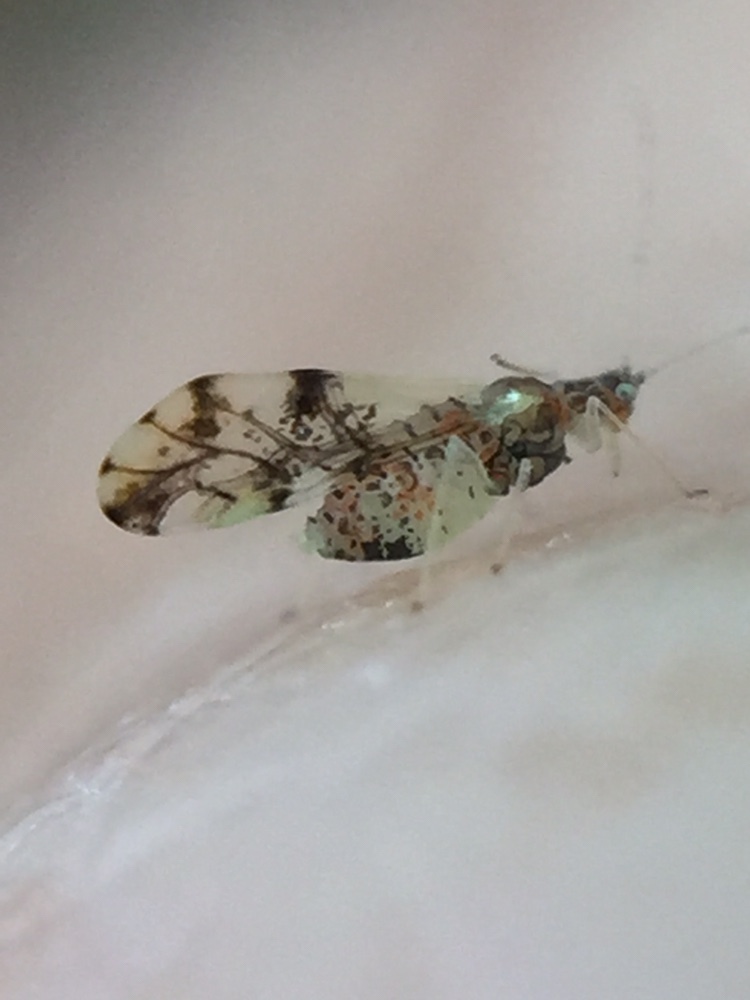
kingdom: Animalia
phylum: Arthropoda
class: Insecta
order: Hemiptera
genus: Neomyzocallis
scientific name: Neomyzocallis
